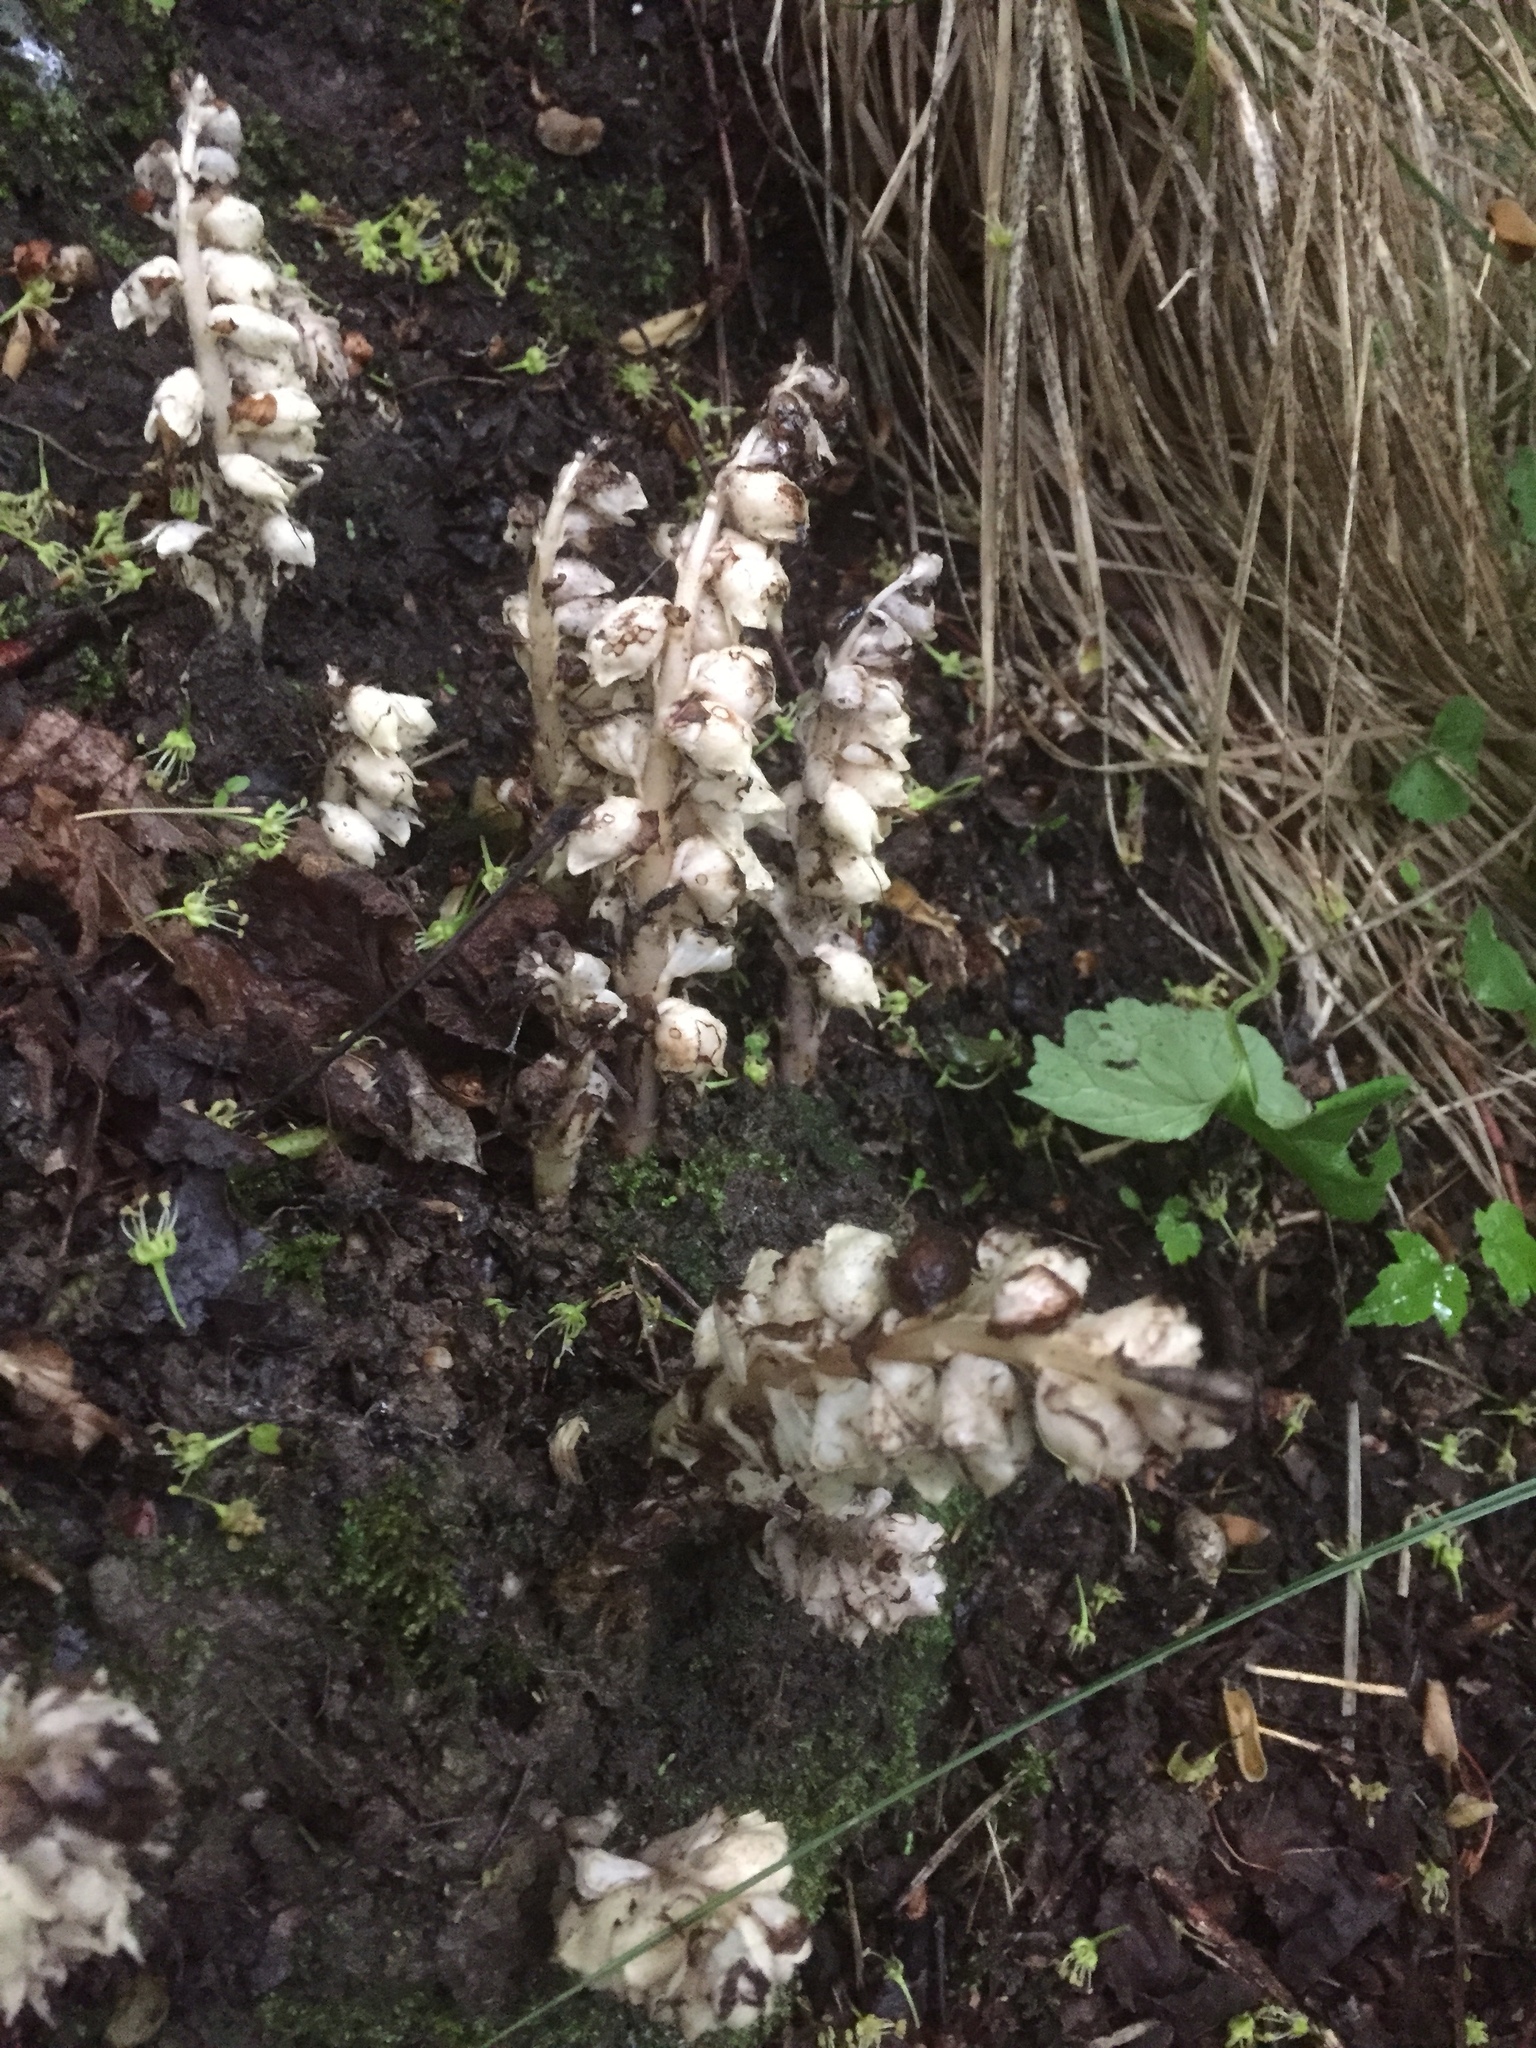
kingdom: Plantae
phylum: Tracheophyta
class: Magnoliopsida
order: Lamiales
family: Orobanchaceae
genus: Lathraea
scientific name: Lathraea squamaria
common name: Toothwort
